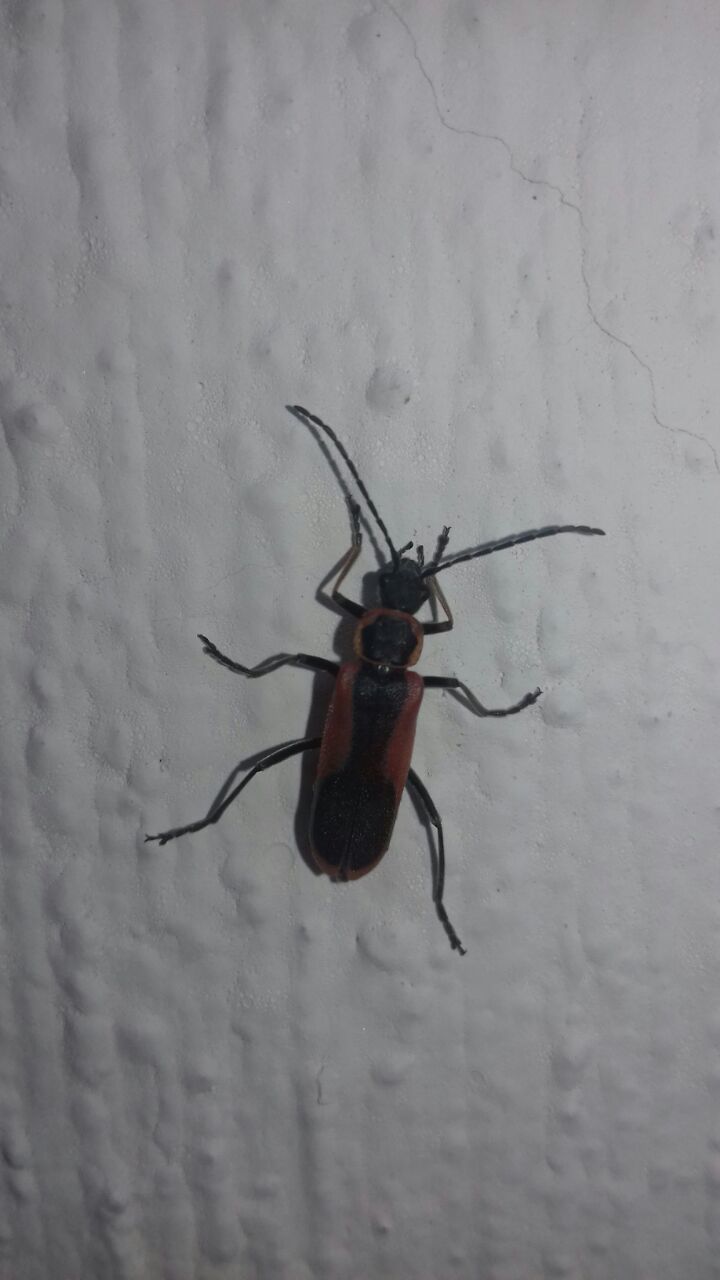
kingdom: Animalia
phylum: Arthropoda
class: Insecta
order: Coleoptera
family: Cantharidae
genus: Chauliognathus
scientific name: Chauliognathus limbicollis
